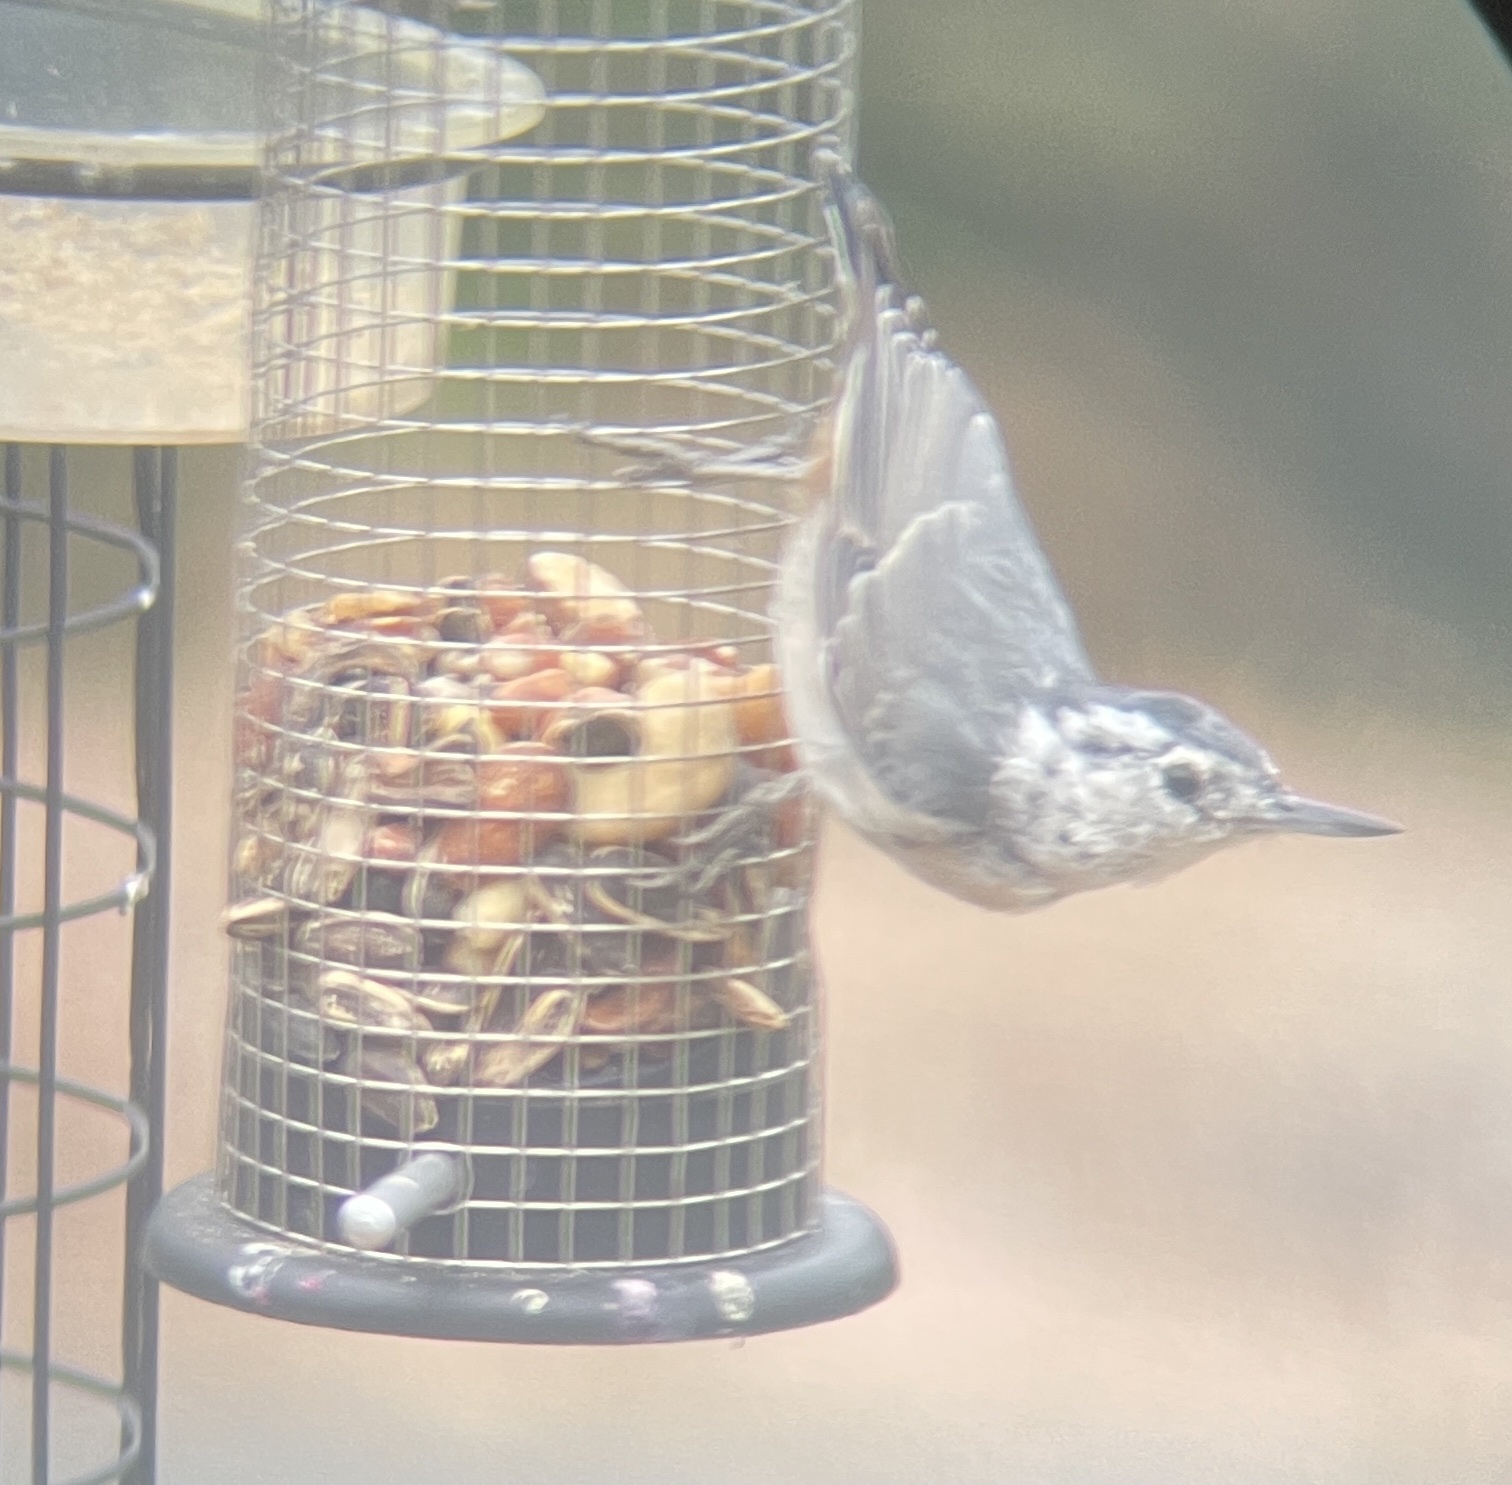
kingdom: Animalia
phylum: Chordata
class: Aves
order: Passeriformes
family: Sittidae
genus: Sitta
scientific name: Sitta carolinensis
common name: White-breasted nuthatch
